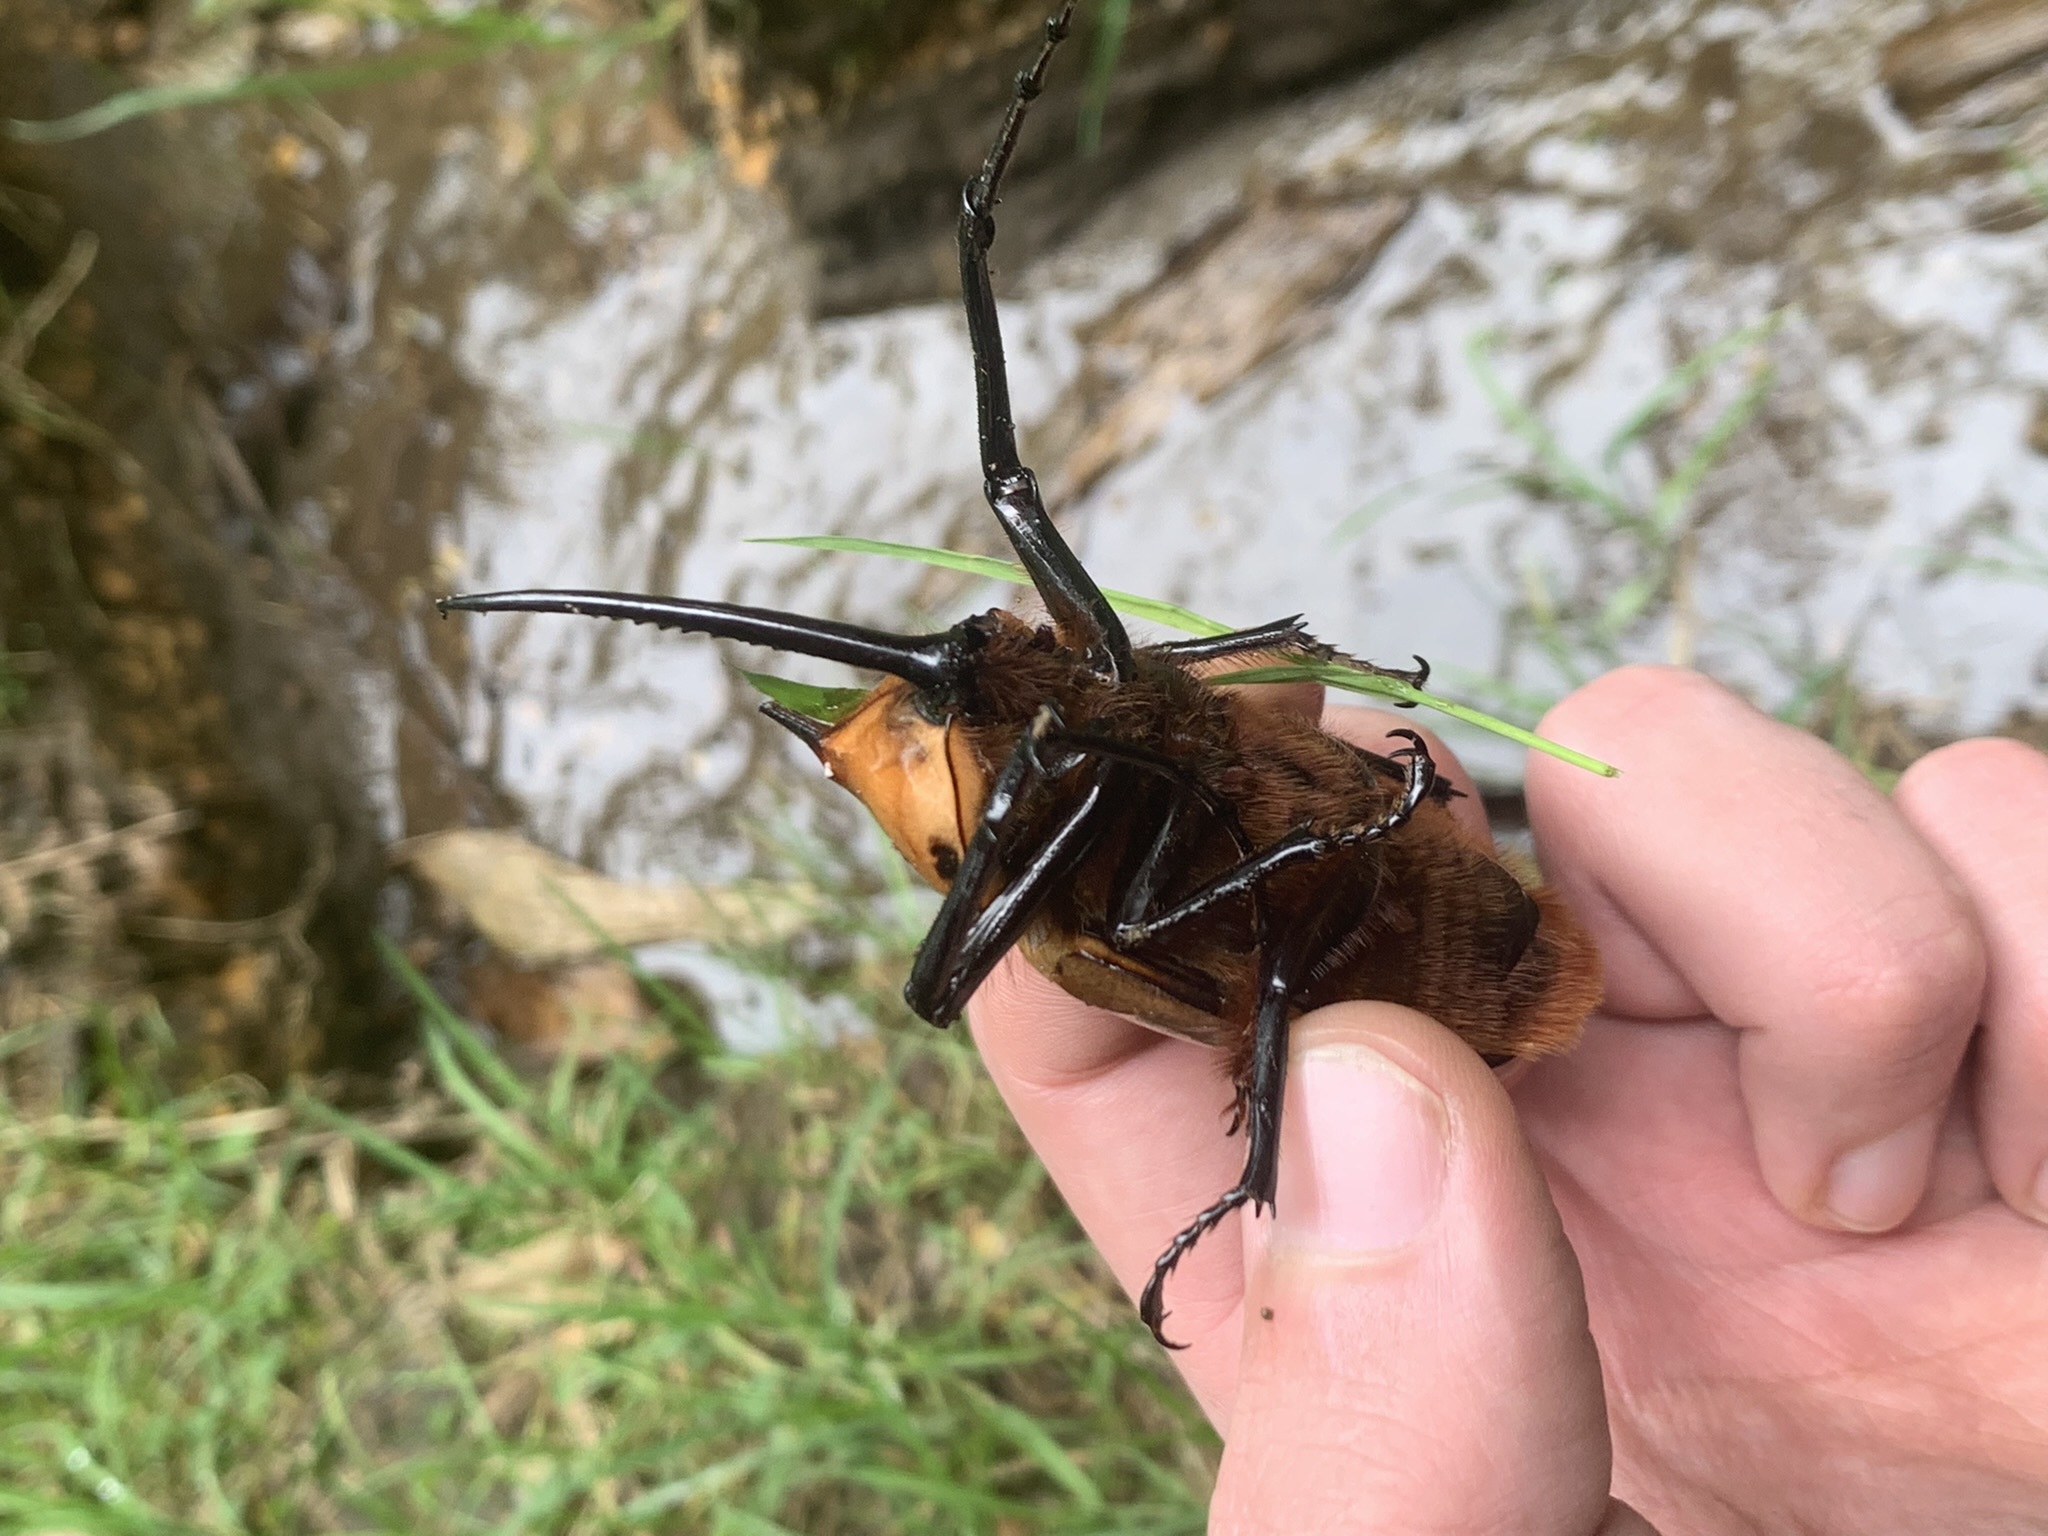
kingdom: Animalia
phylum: Arthropoda
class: Insecta
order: Coleoptera
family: Scarabaeidae
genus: Golofa
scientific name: Golofa porteri
